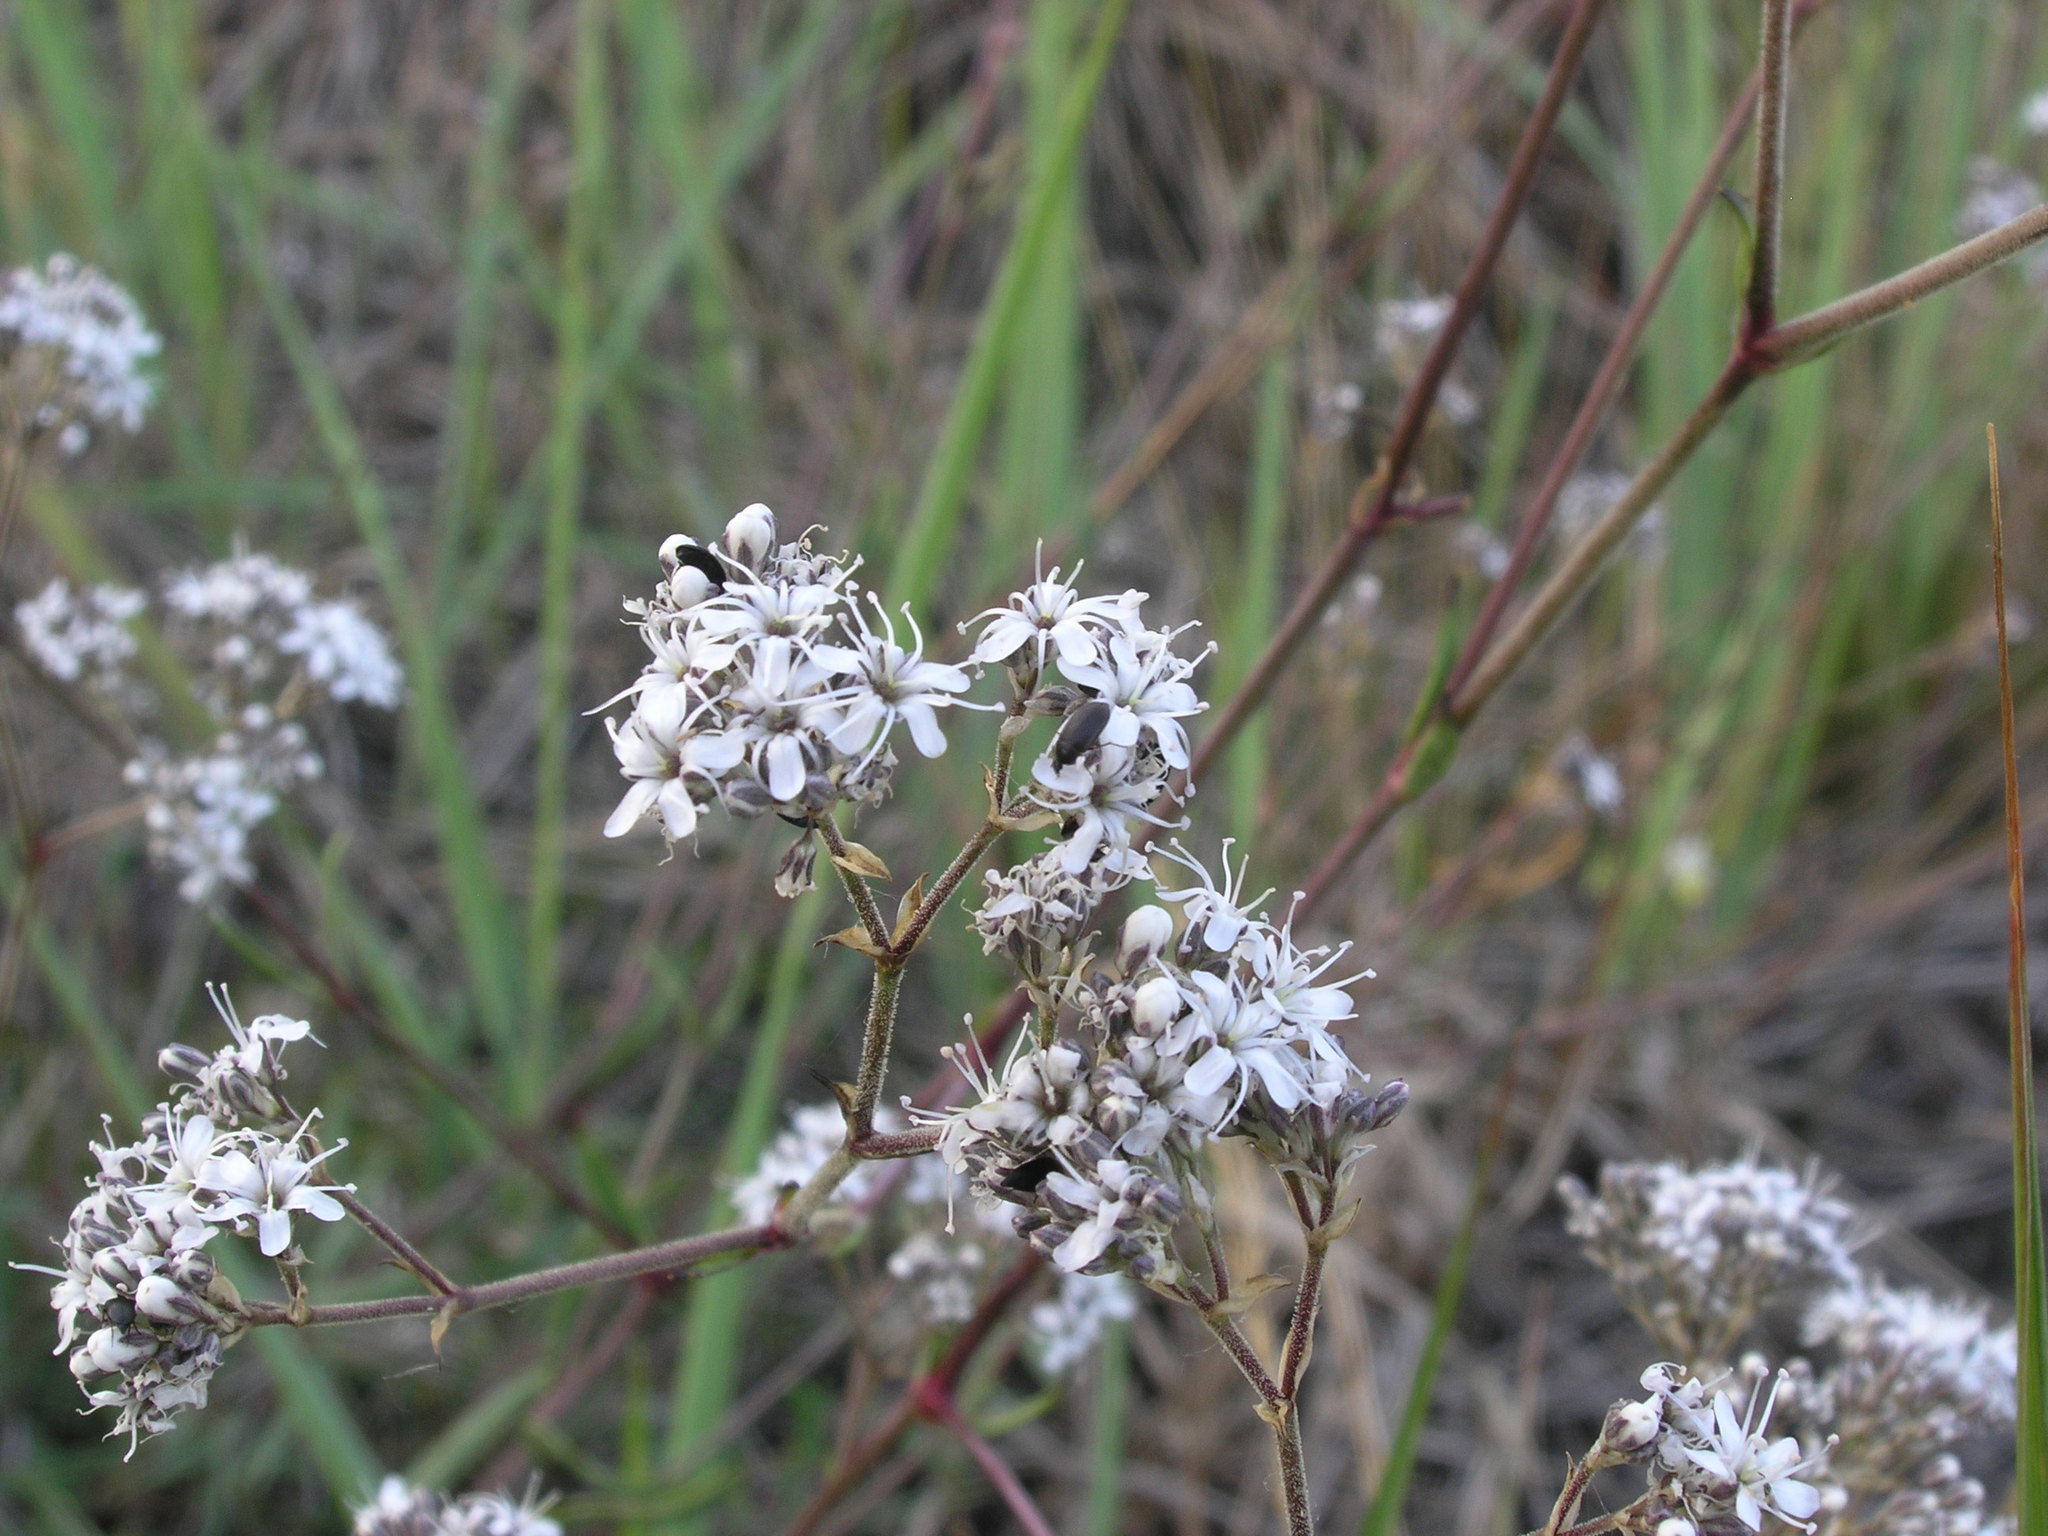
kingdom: Plantae
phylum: Tracheophyta
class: Magnoliopsida
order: Caryophyllales
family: Caryophyllaceae
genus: Gypsophila
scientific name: Gypsophila fastigiata
